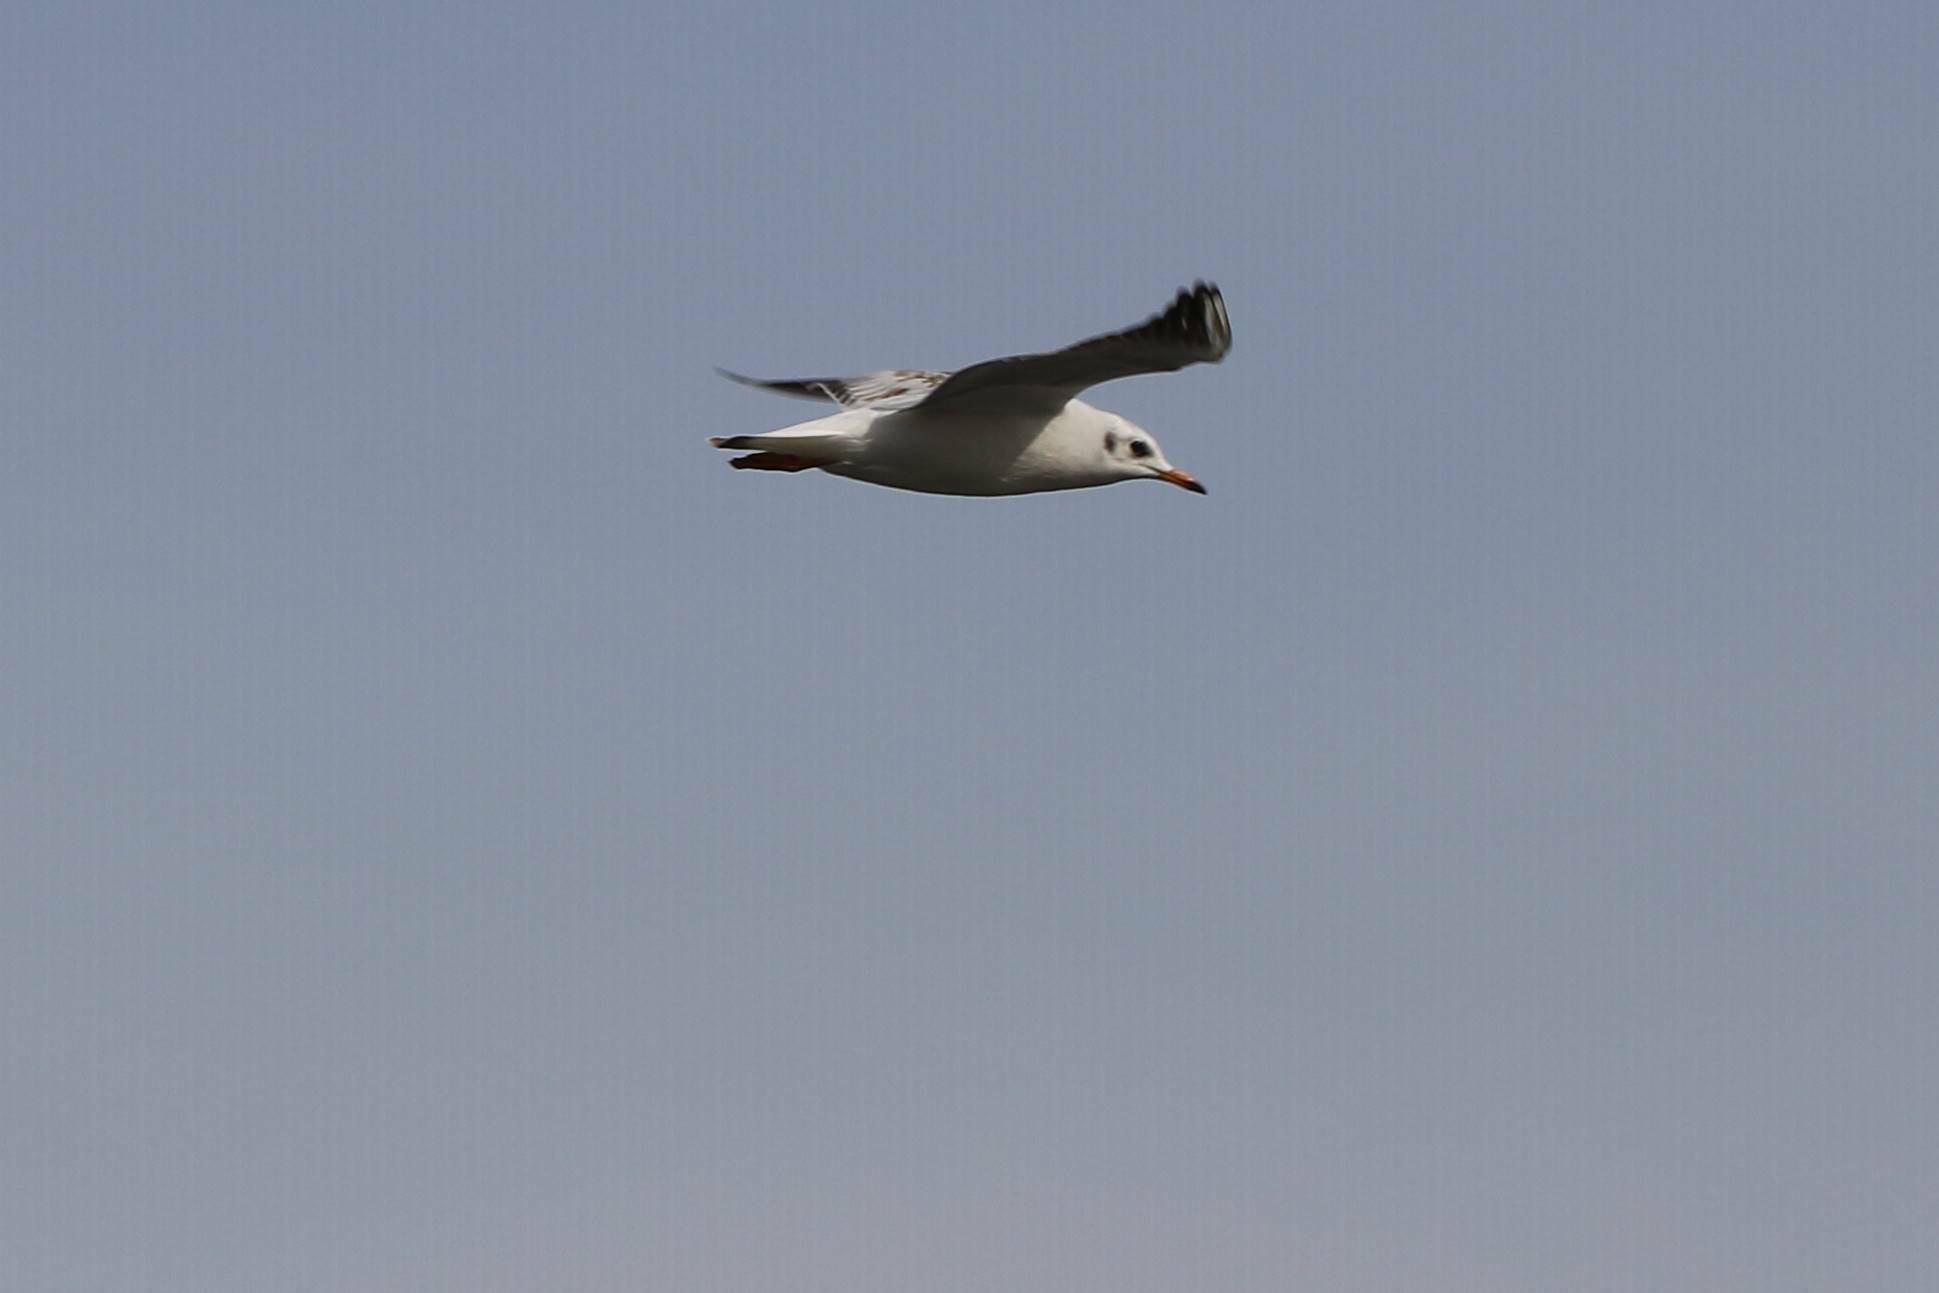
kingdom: Animalia
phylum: Chordata
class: Aves
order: Charadriiformes
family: Laridae
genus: Chroicocephalus
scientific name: Chroicocephalus ridibundus
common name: Black-headed gull
